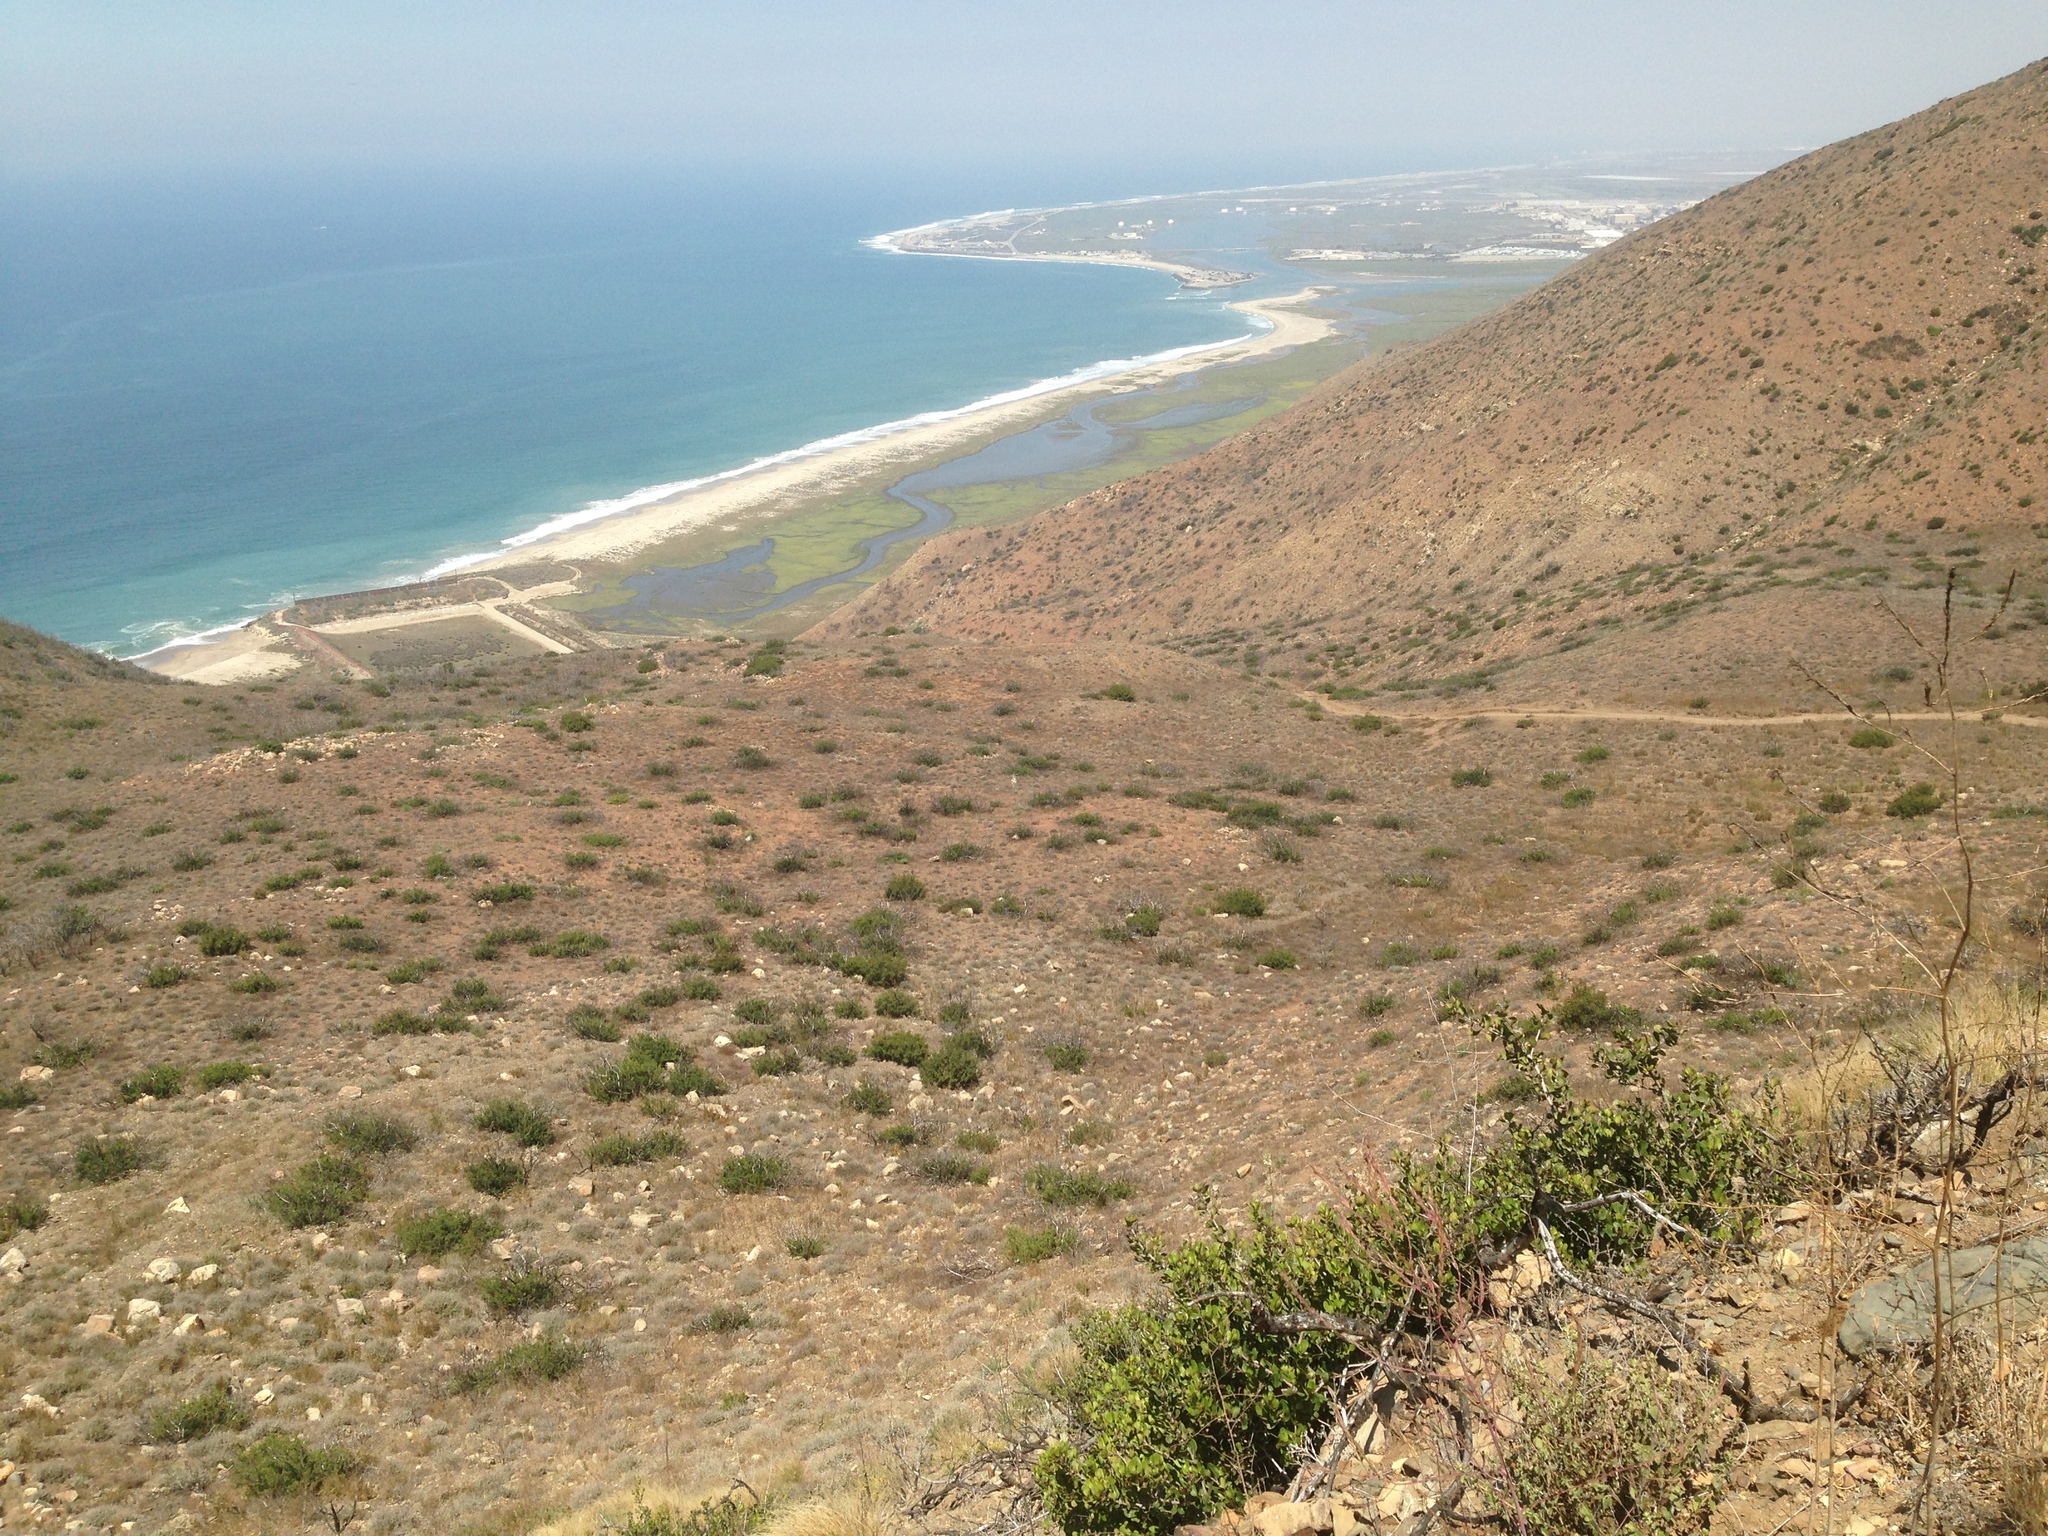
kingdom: Plantae
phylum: Tracheophyta
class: Magnoliopsida
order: Sapindales
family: Anacardiaceae
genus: Rhus
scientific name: Rhus integrifolia
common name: Lemonade sumac
